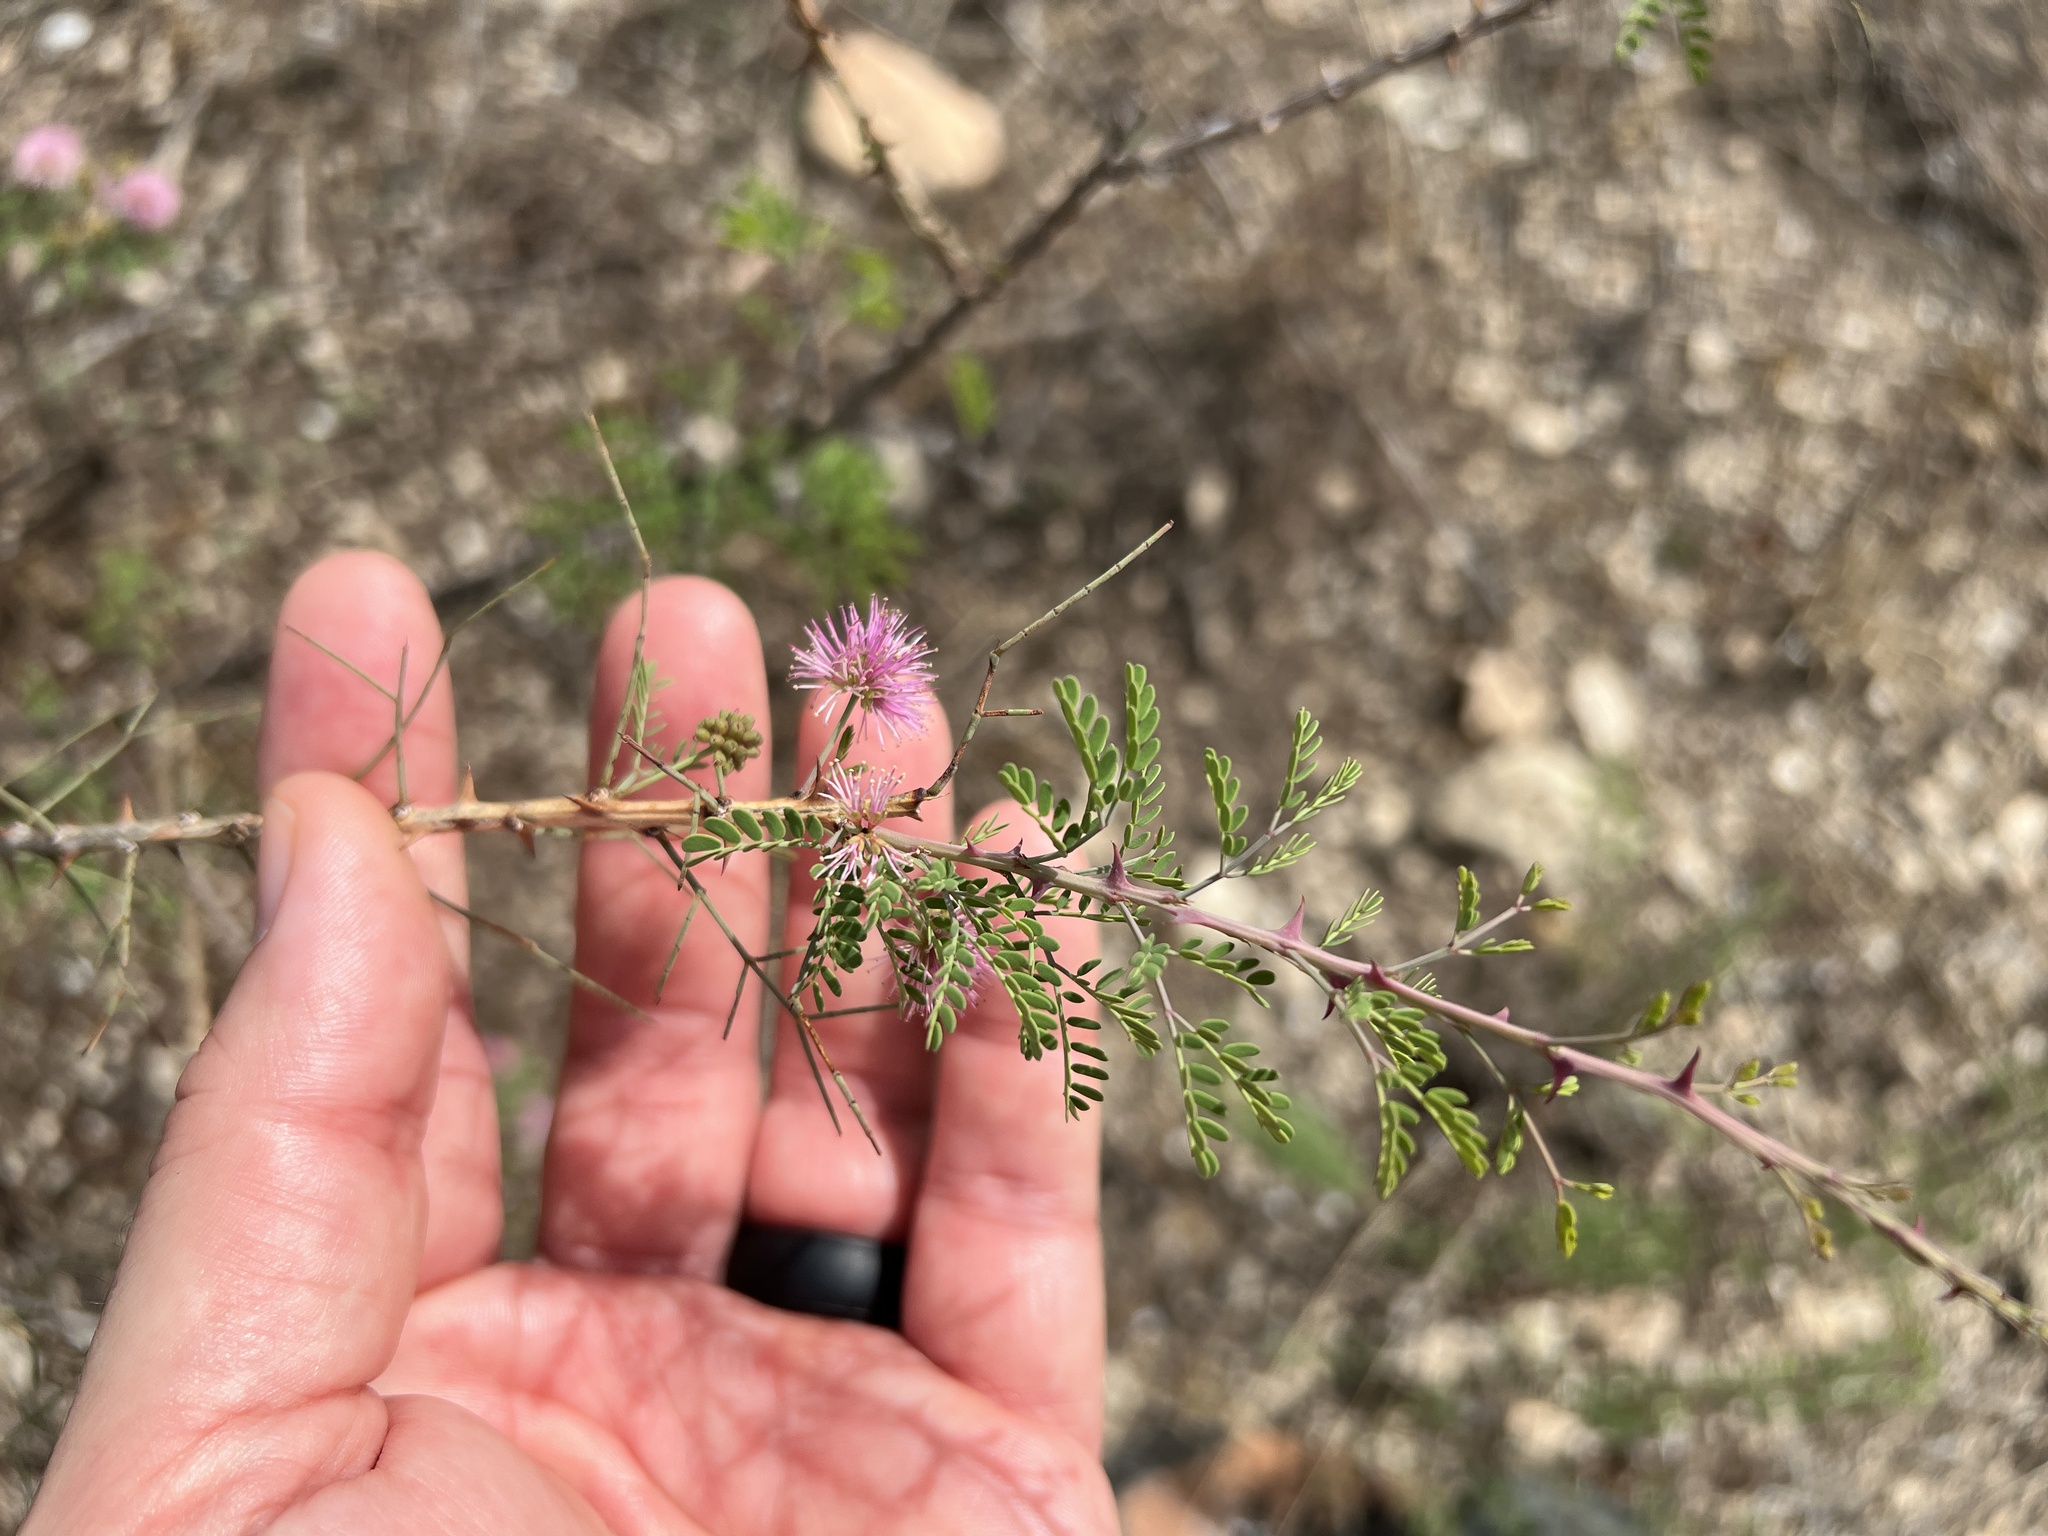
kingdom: Plantae
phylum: Tracheophyta
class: Magnoliopsida
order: Fabales
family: Fabaceae
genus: Mimosa
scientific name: Mimosa borealis
